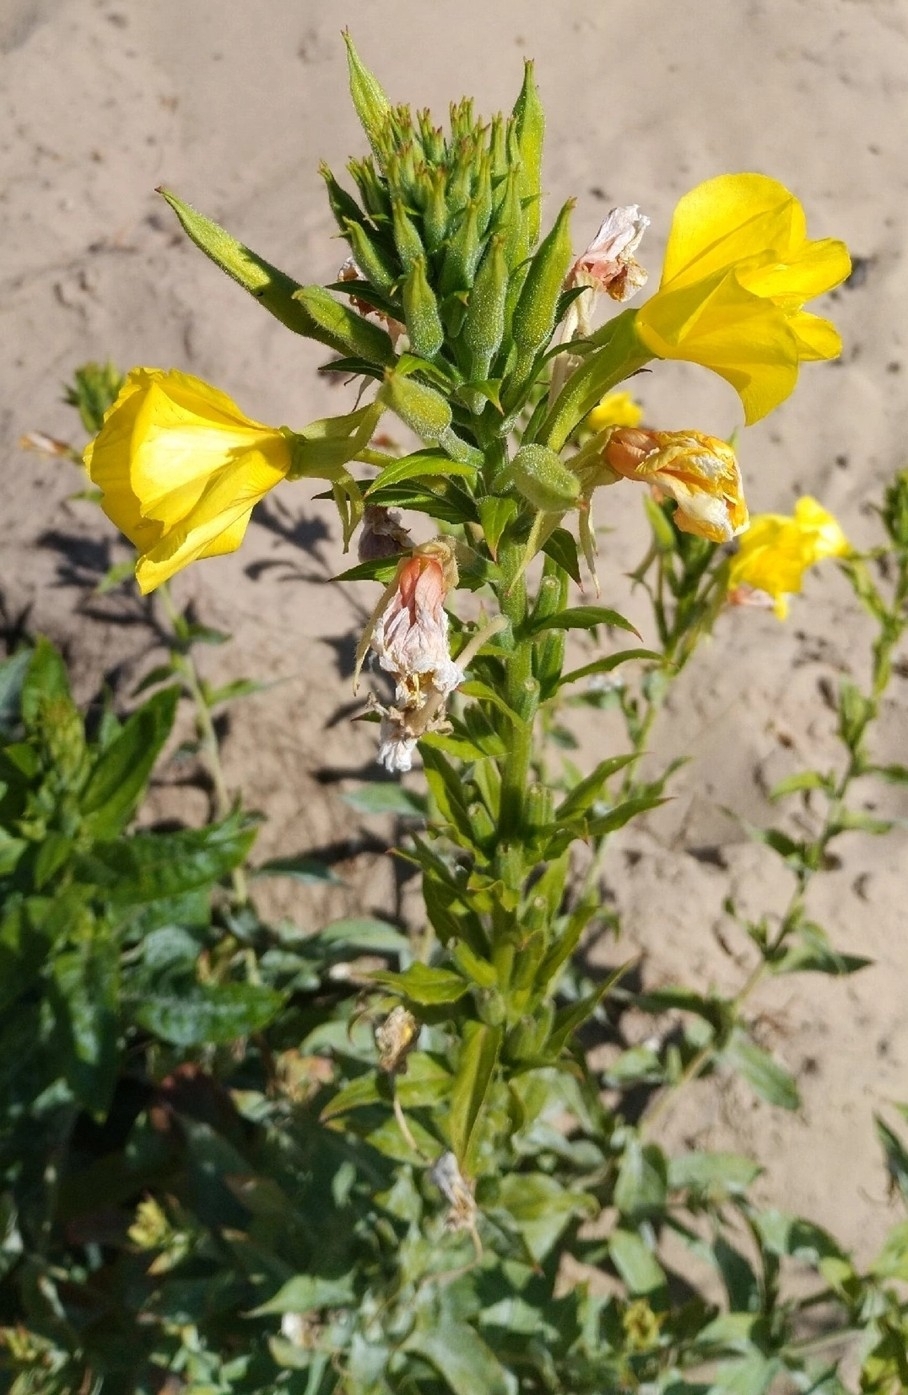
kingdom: Plantae
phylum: Tracheophyta
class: Magnoliopsida
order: Myrtales
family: Onagraceae
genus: Oenothera
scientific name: Oenothera biennis
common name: Common evening-primrose
